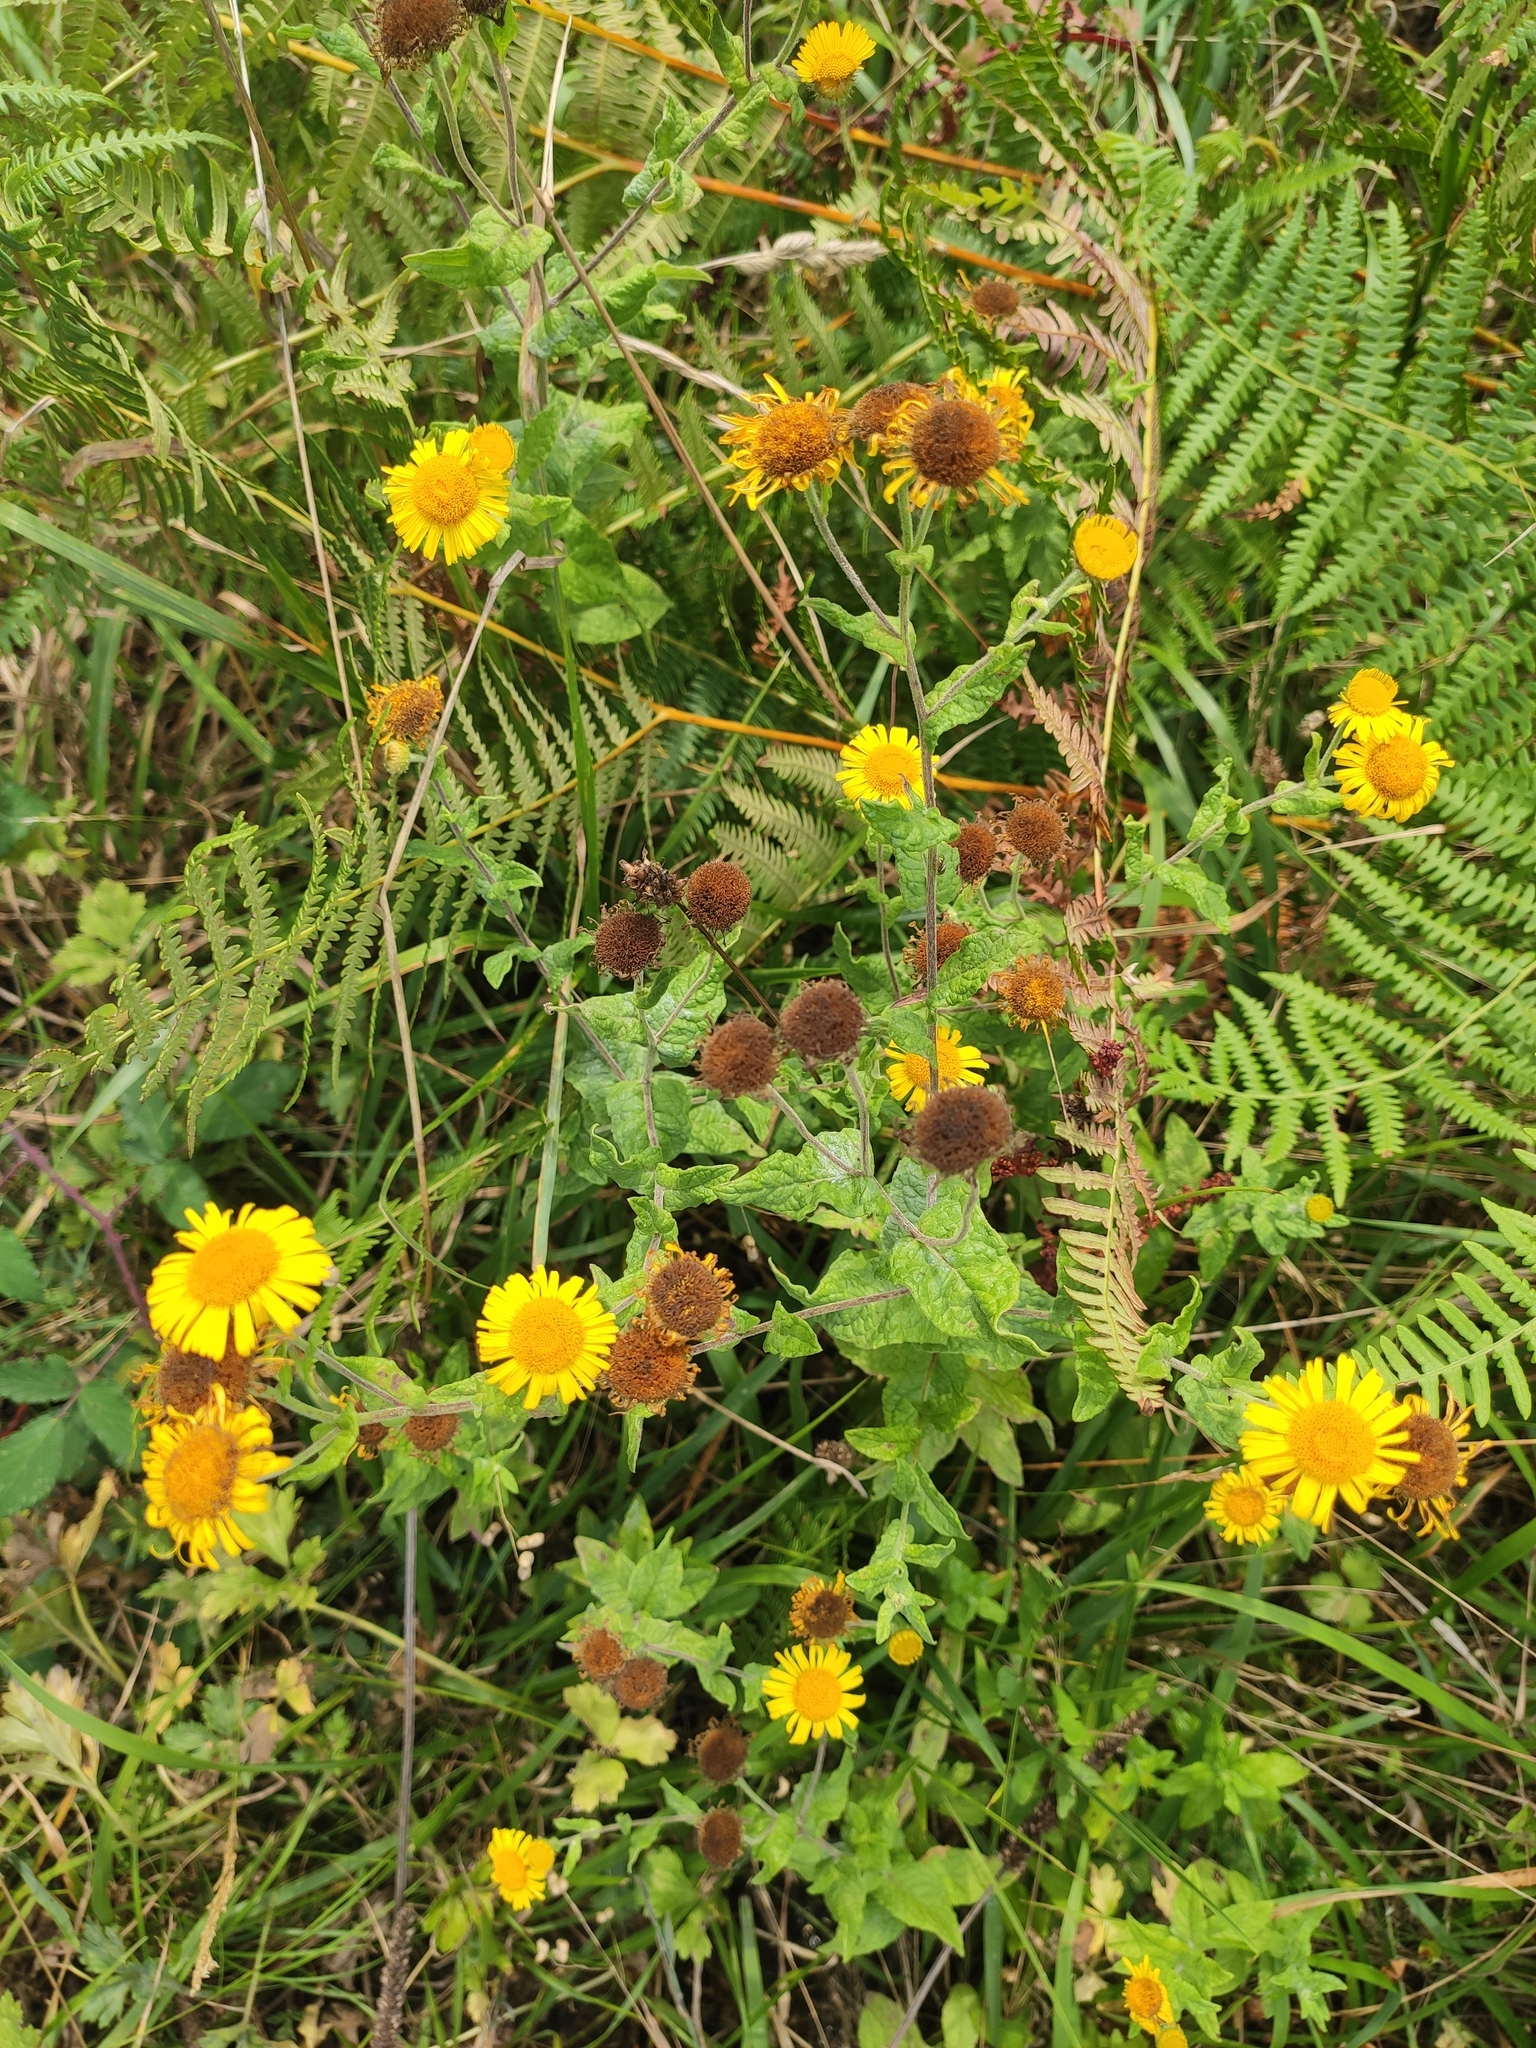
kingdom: Plantae
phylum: Tracheophyta
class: Magnoliopsida
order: Asterales
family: Asteraceae
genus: Pulicaria
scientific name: Pulicaria dysenterica
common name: Common fleabane
